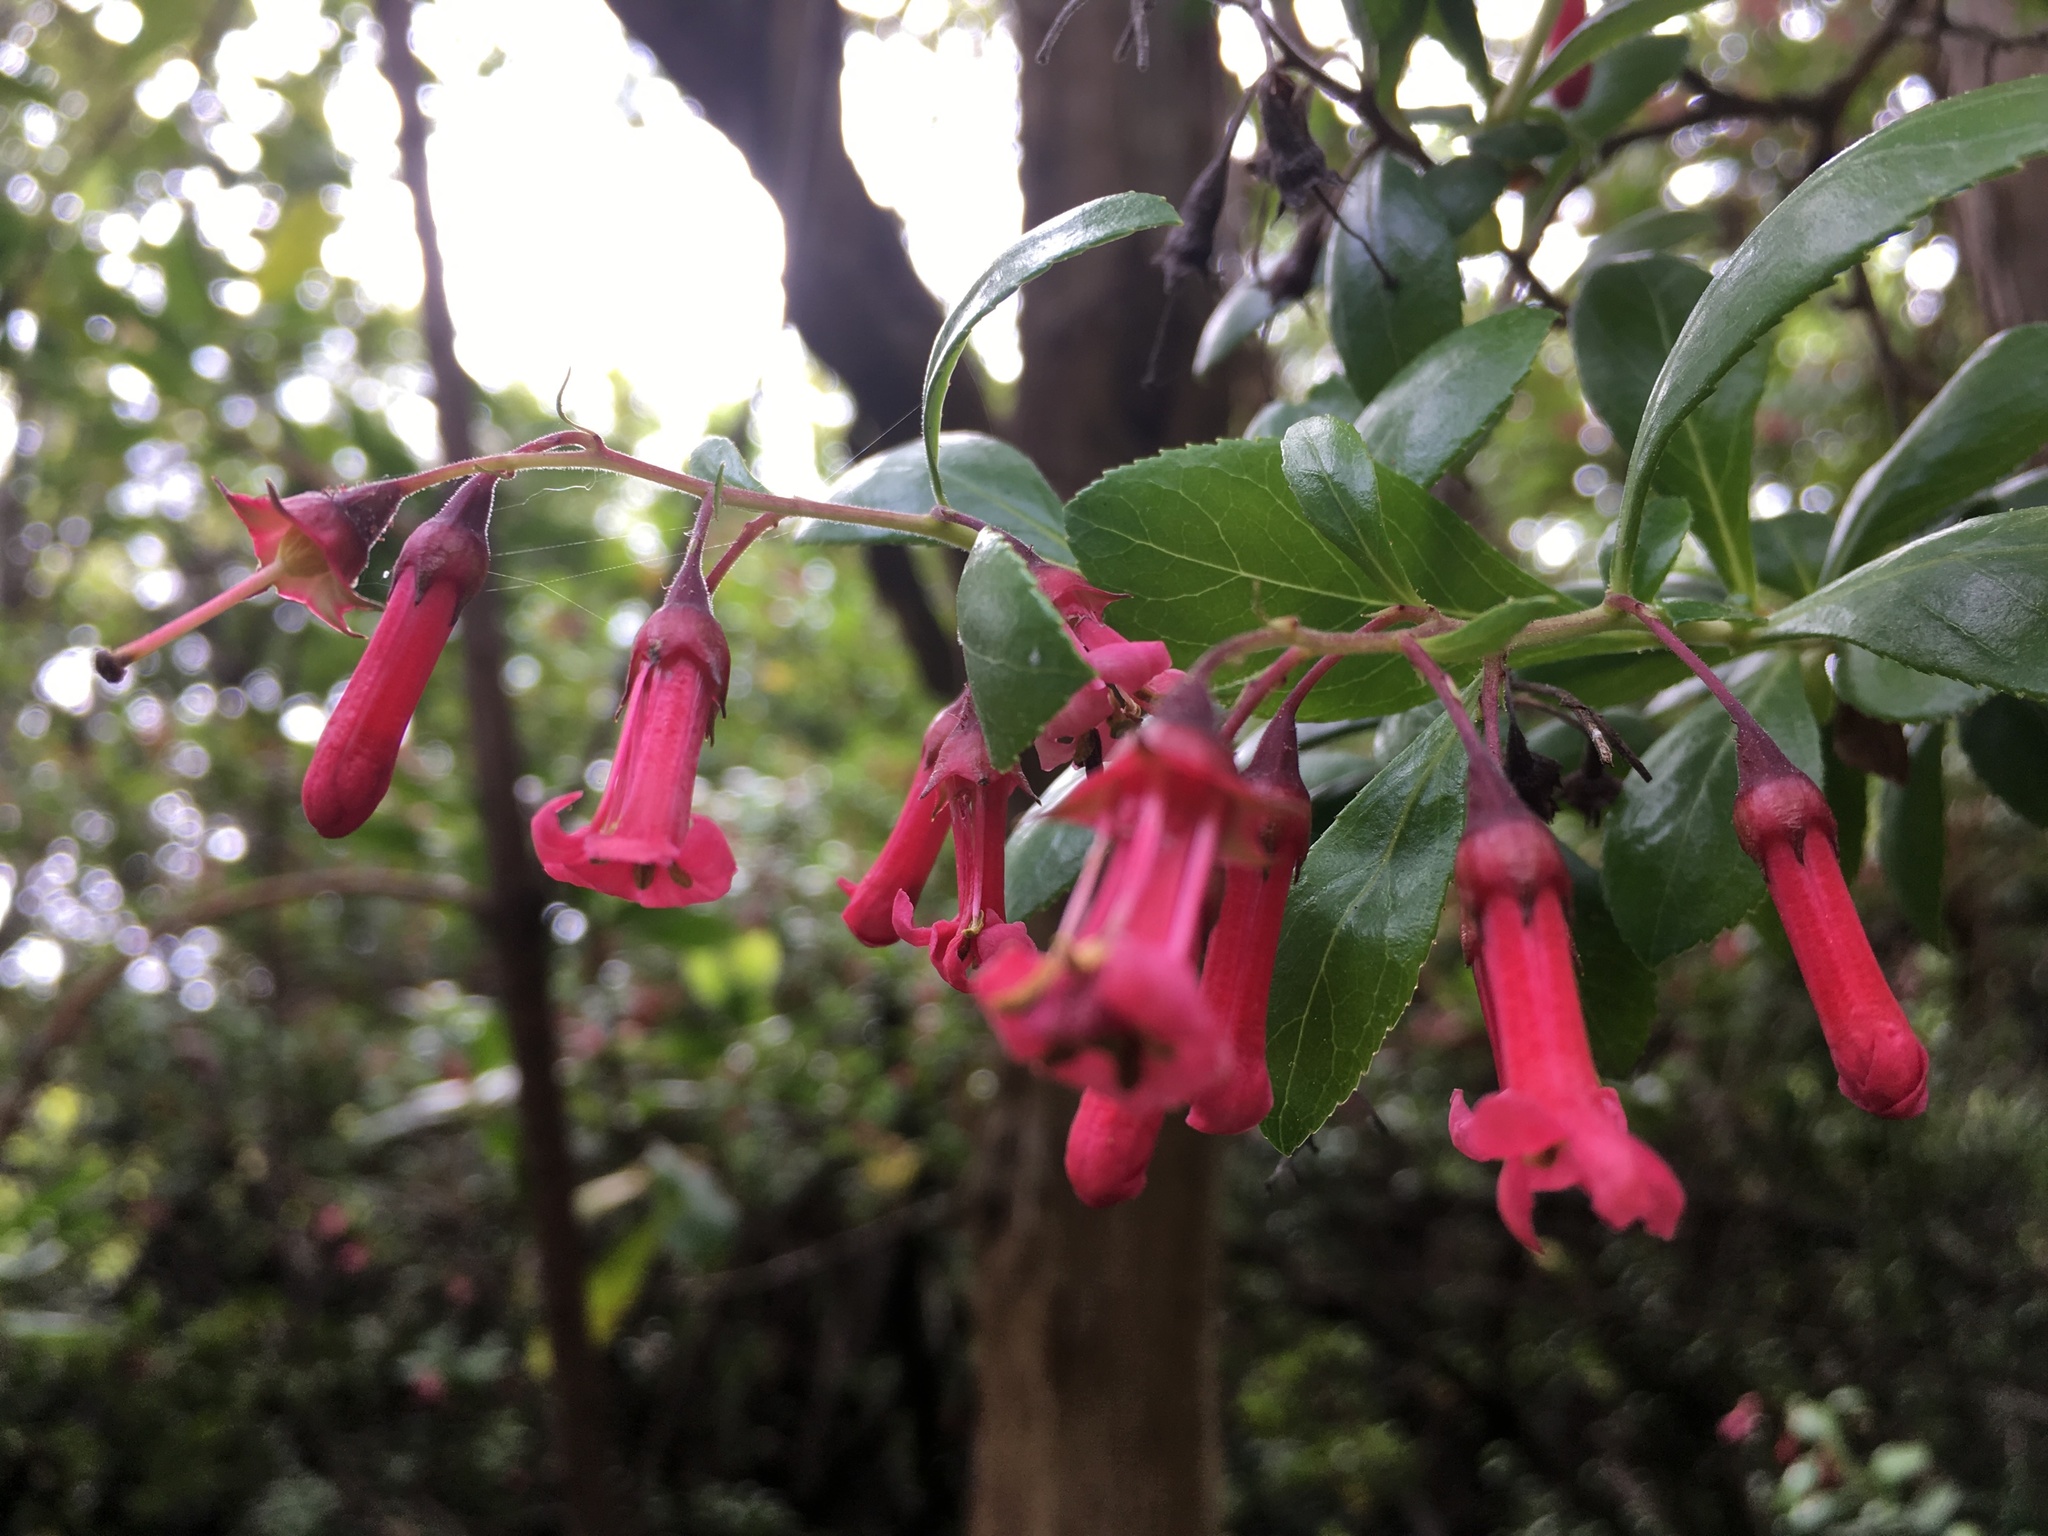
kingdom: Plantae
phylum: Tracheophyta
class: Magnoliopsida
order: Escalloniales
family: Escalloniaceae
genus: Escallonia
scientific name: Escallonia rubra
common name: Redclaws
